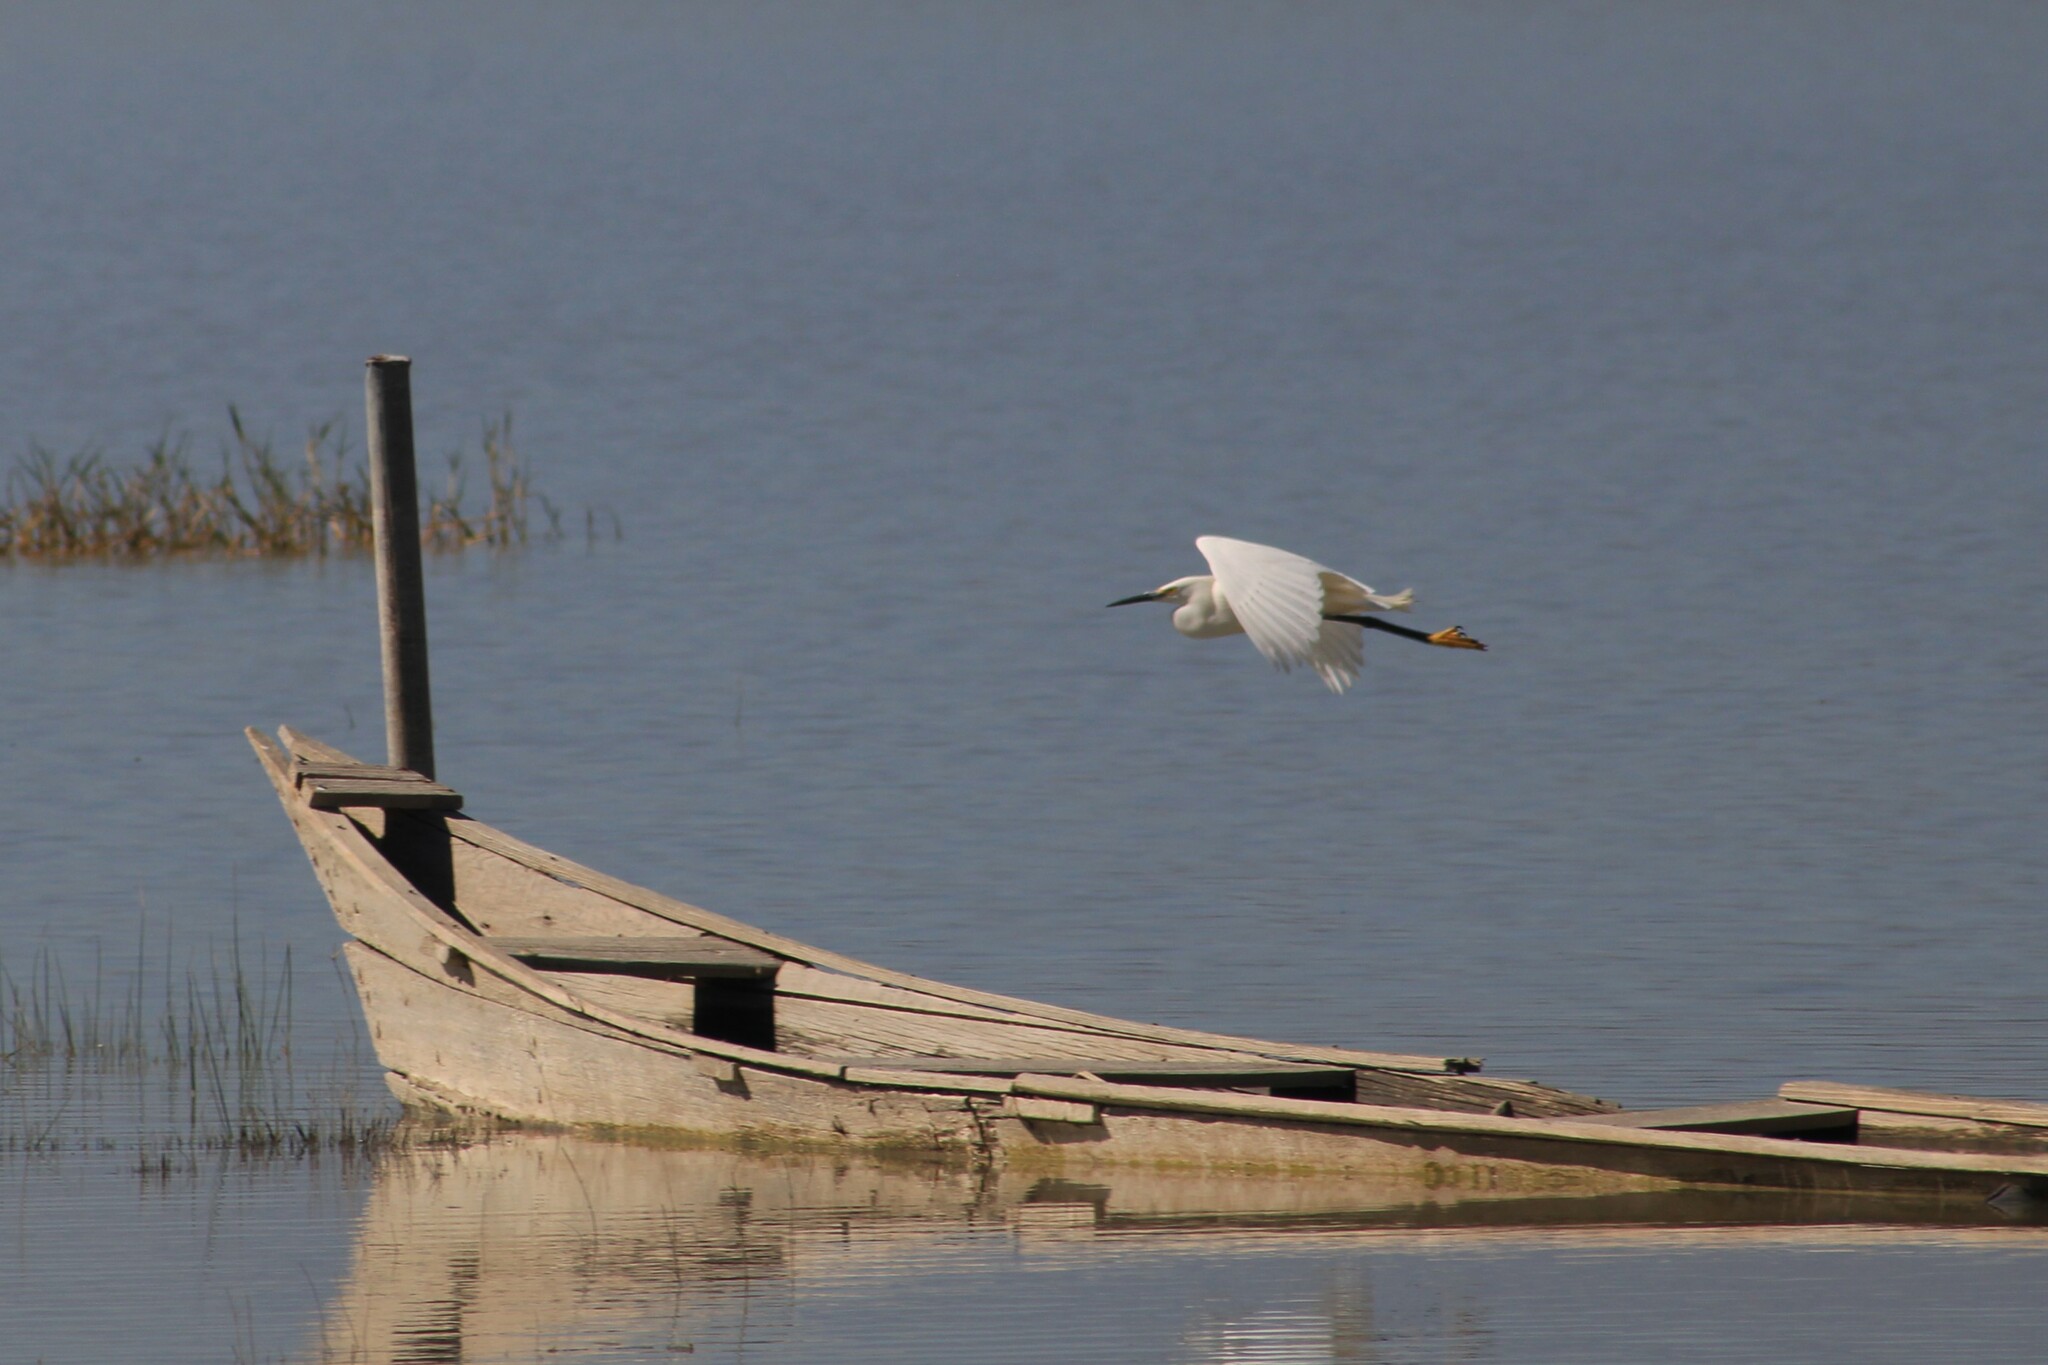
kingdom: Animalia
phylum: Chordata
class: Aves
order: Pelecaniformes
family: Ardeidae
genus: Egretta
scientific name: Egretta thula
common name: Snowy egret
